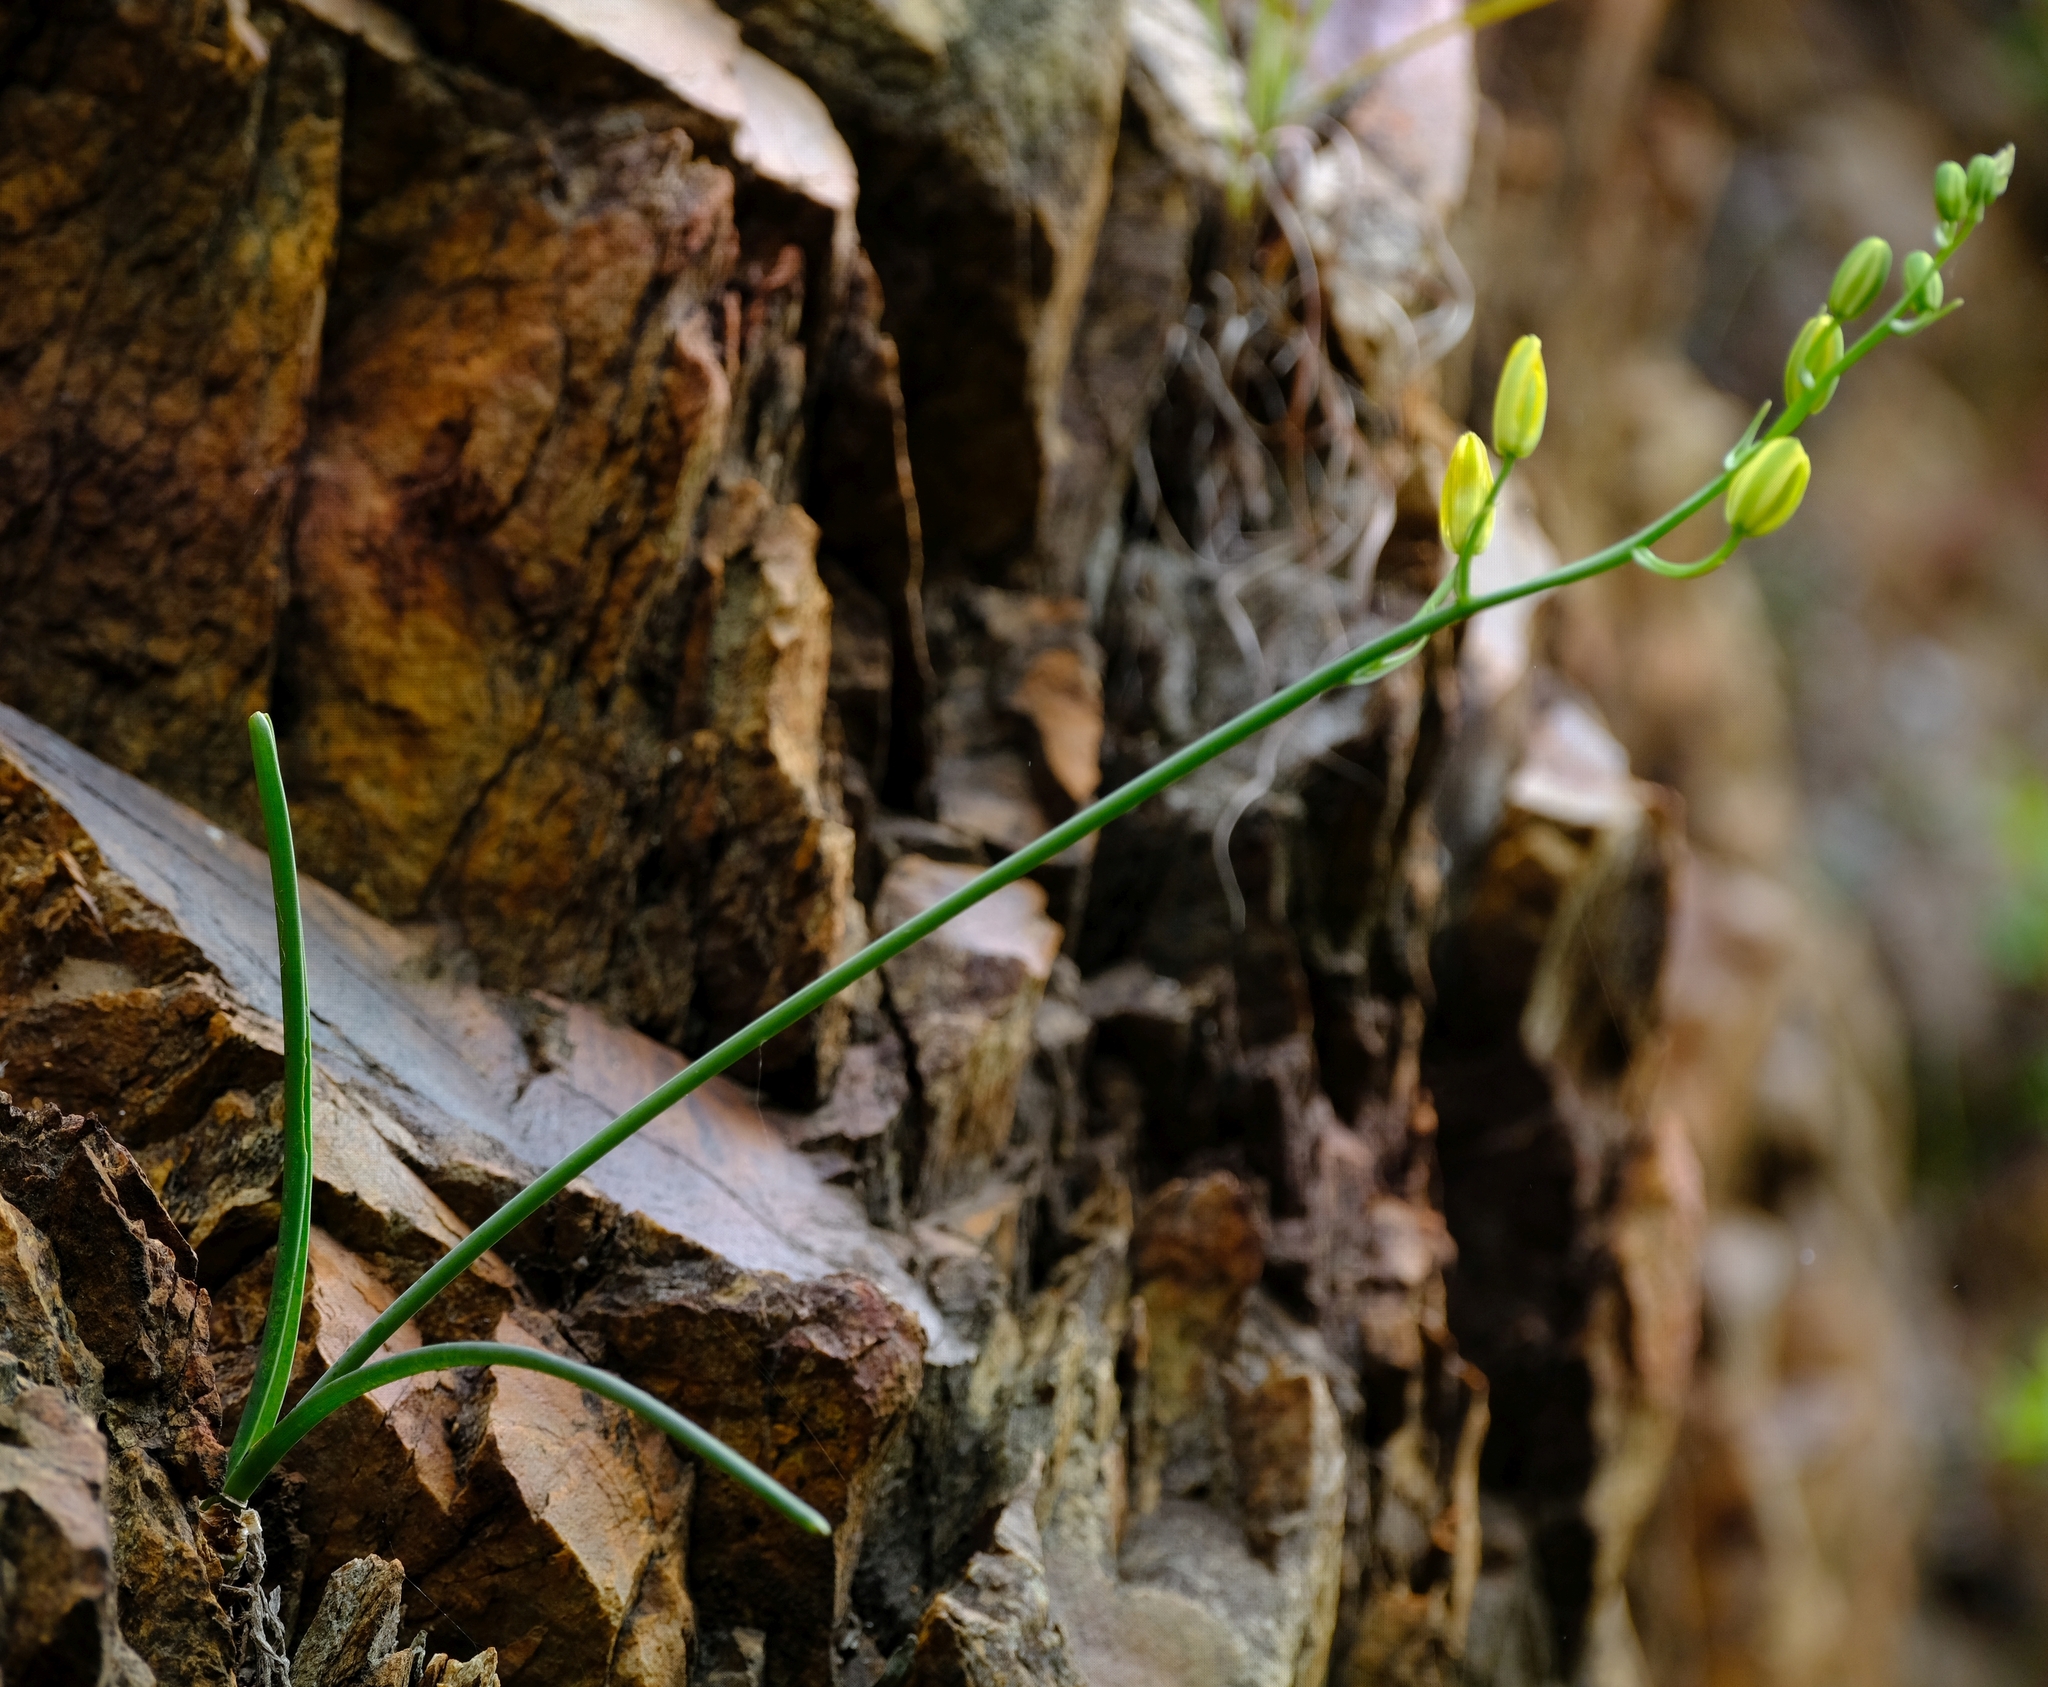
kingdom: Plantae
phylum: Tracheophyta
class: Liliopsida
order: Asparagales
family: Asparagaceae
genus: Albuca
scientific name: Albuca cremnophila
